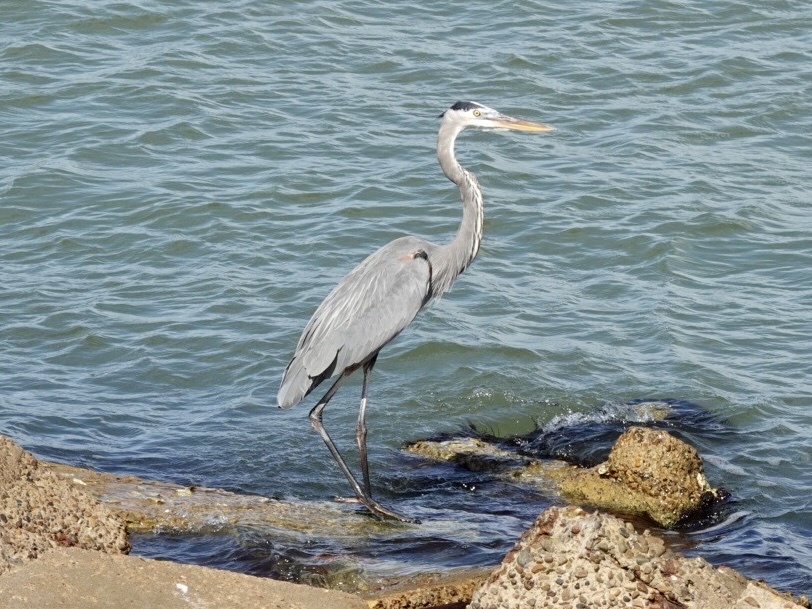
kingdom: Animalia
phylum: Chordata
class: Aves
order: Pelecaniformes
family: Ardeidae
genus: Ardea
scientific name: Ardea herodias
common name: Great blue heron
